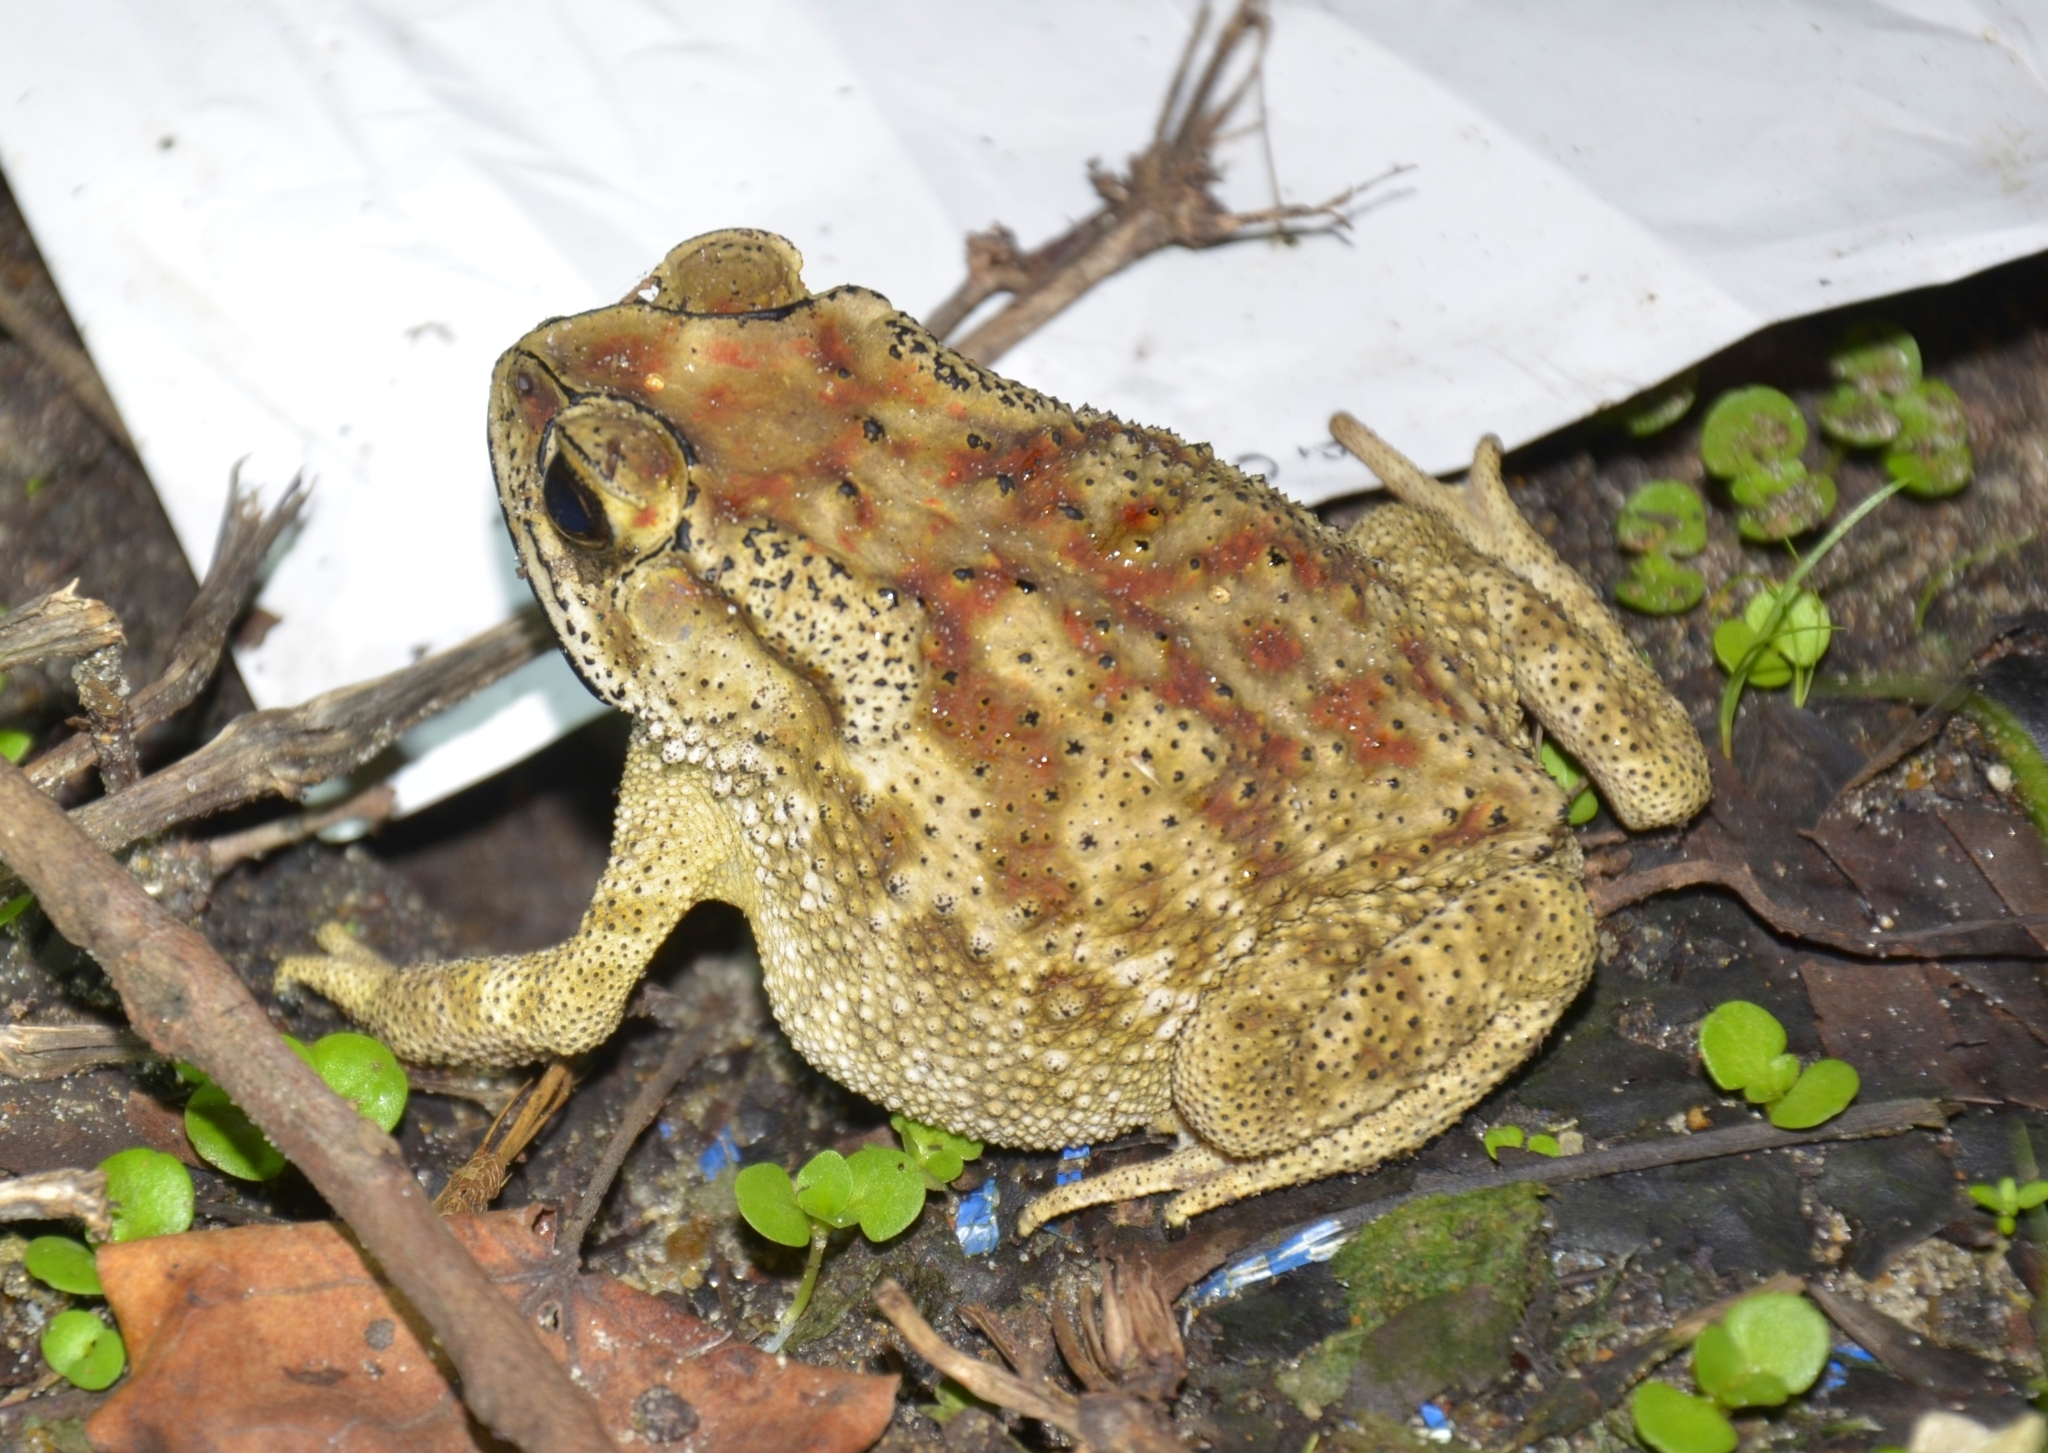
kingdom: Animalia
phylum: Chordata
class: Amphibia
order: Anura
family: Bufonidae
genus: Duttaphrynus
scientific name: Duttaphrynus melanostictus
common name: Common sunda toad
